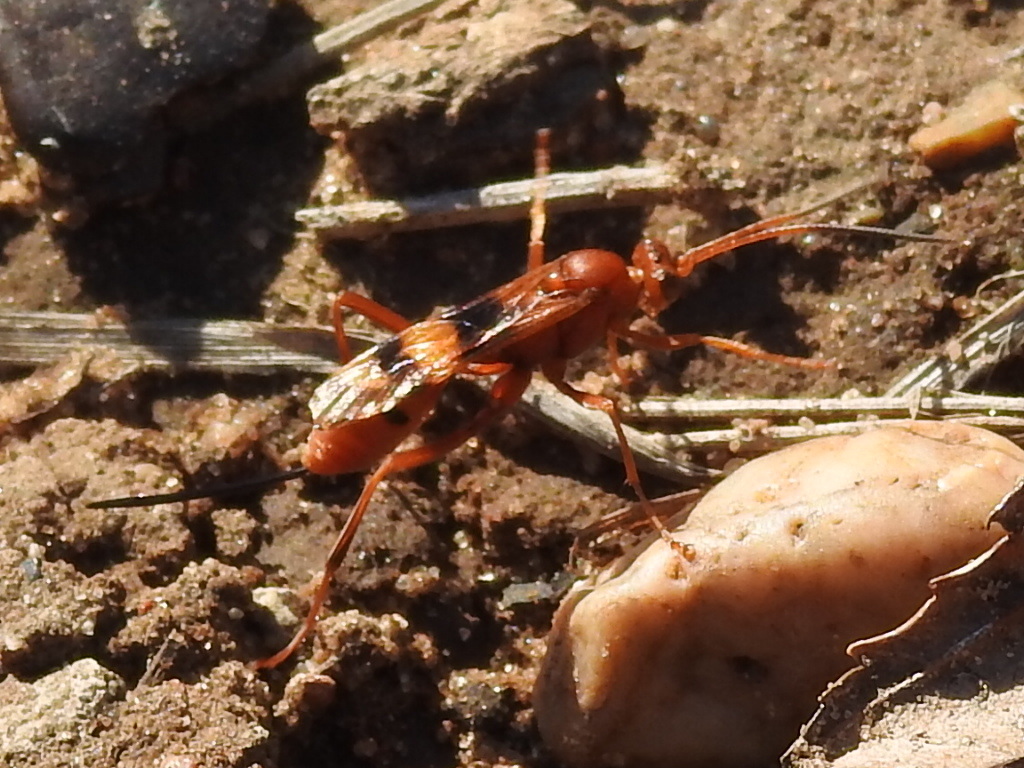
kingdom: Animalia
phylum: Arthropoda
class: Insecta
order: Hymenoptera
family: Ichneumonidae
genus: Compsocryptus
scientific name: Compsocryptus texensis
